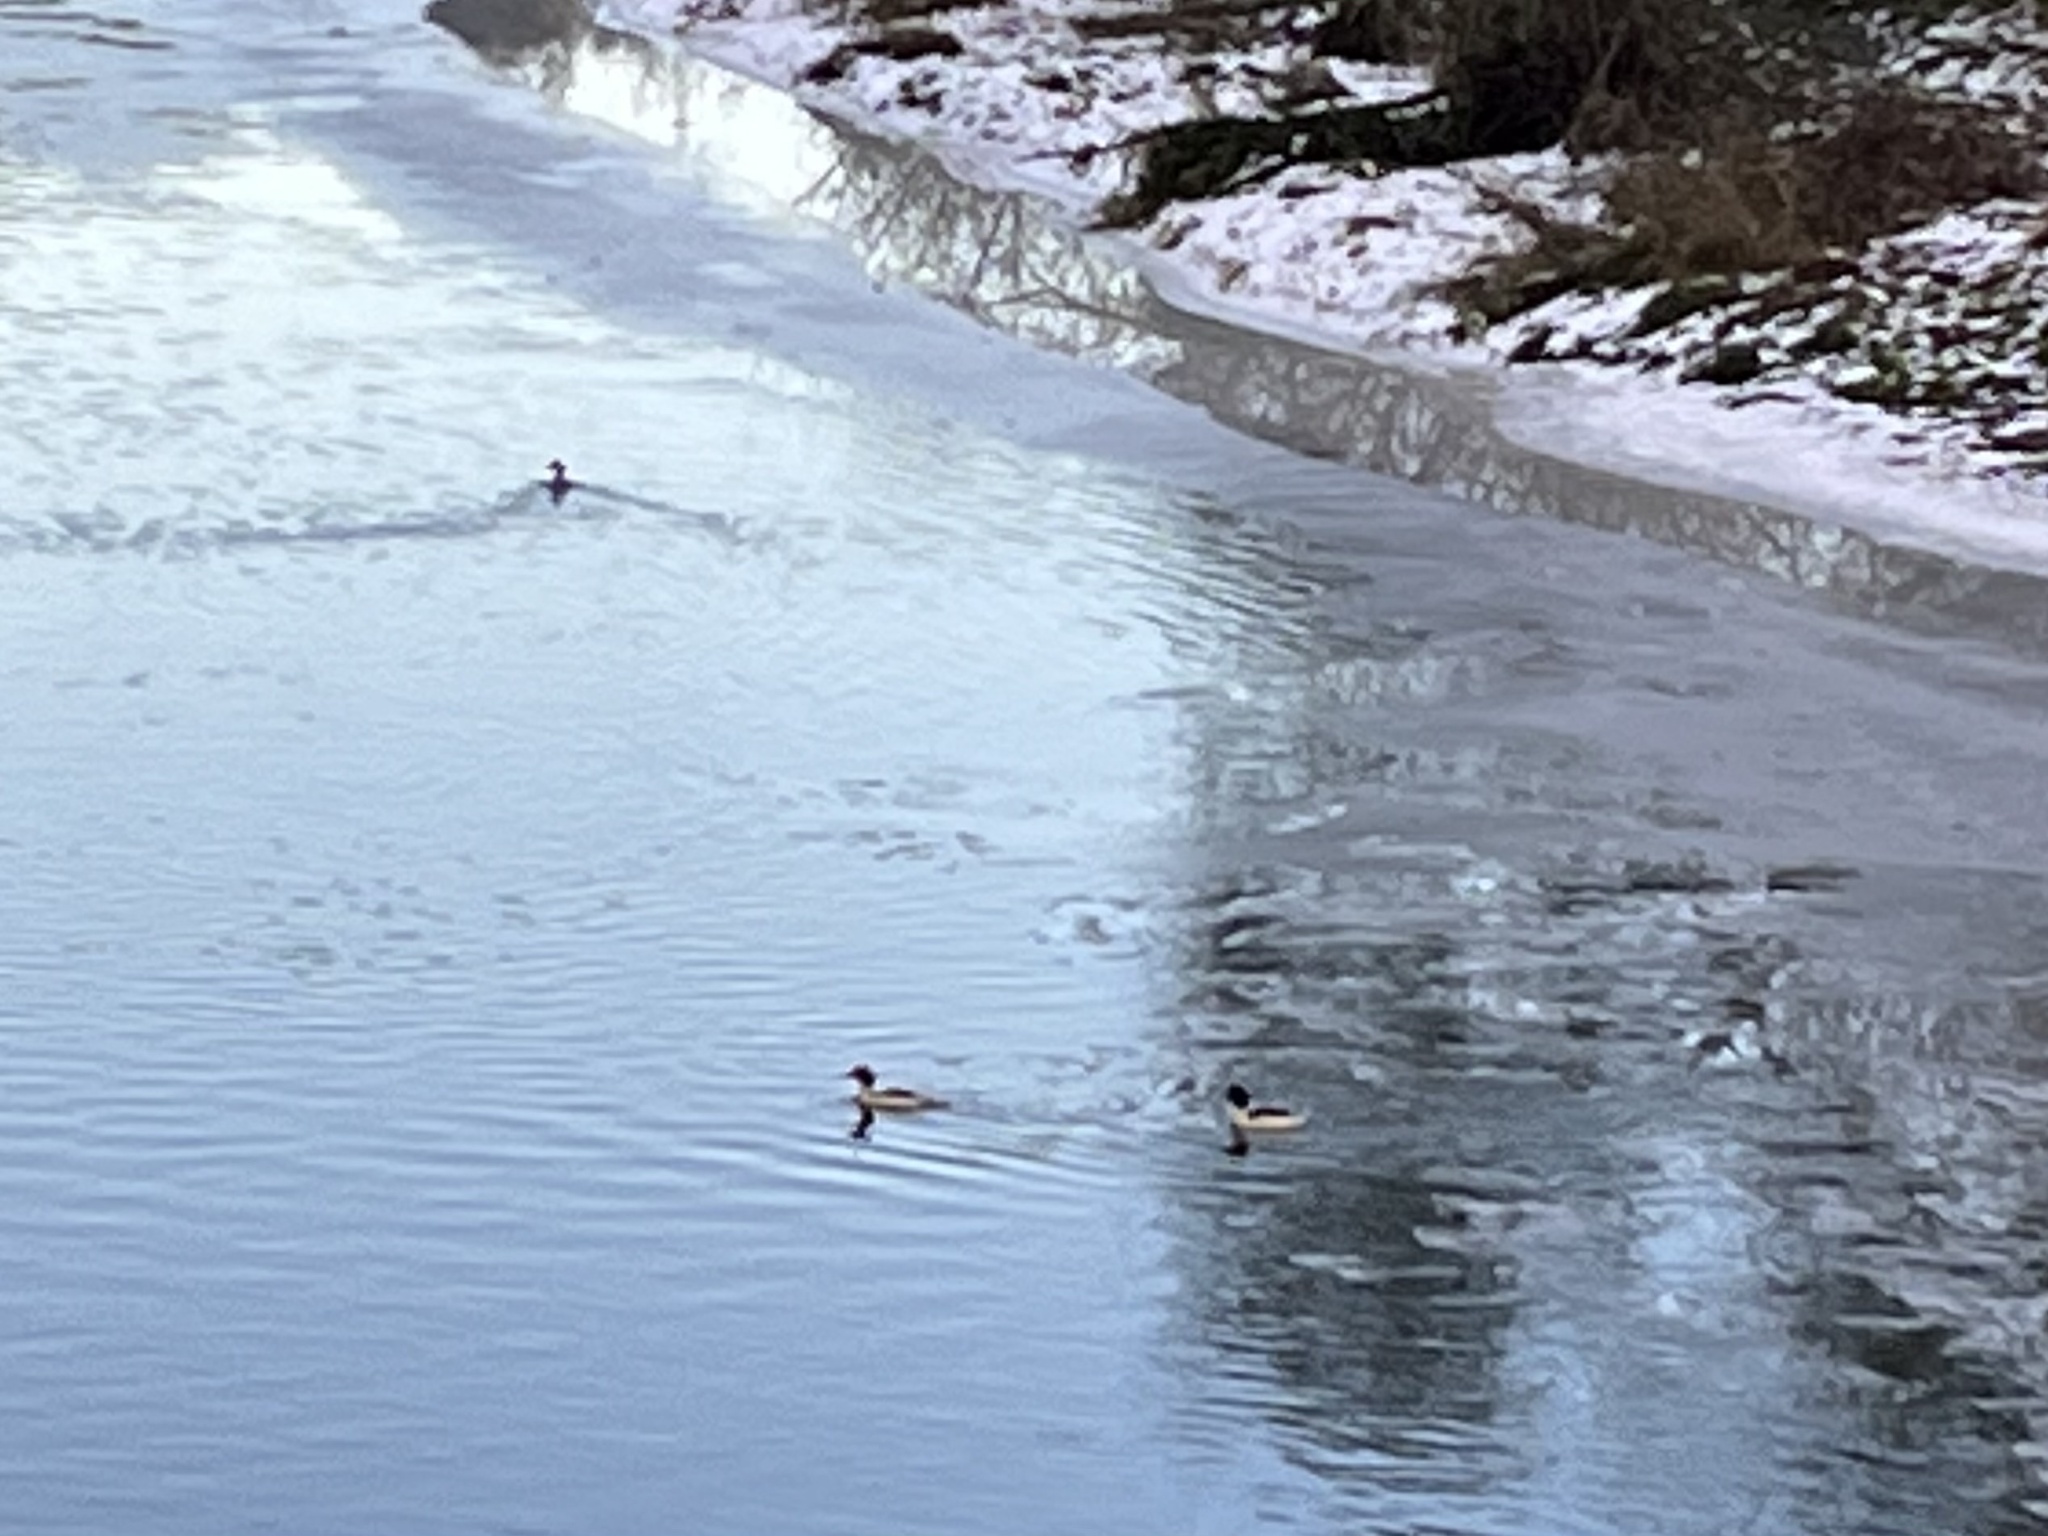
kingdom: Animalia
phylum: Chordata
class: Aves
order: Anseriformes
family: Anatidae
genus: Mergus
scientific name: Mergus merganser
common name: Common merganser
